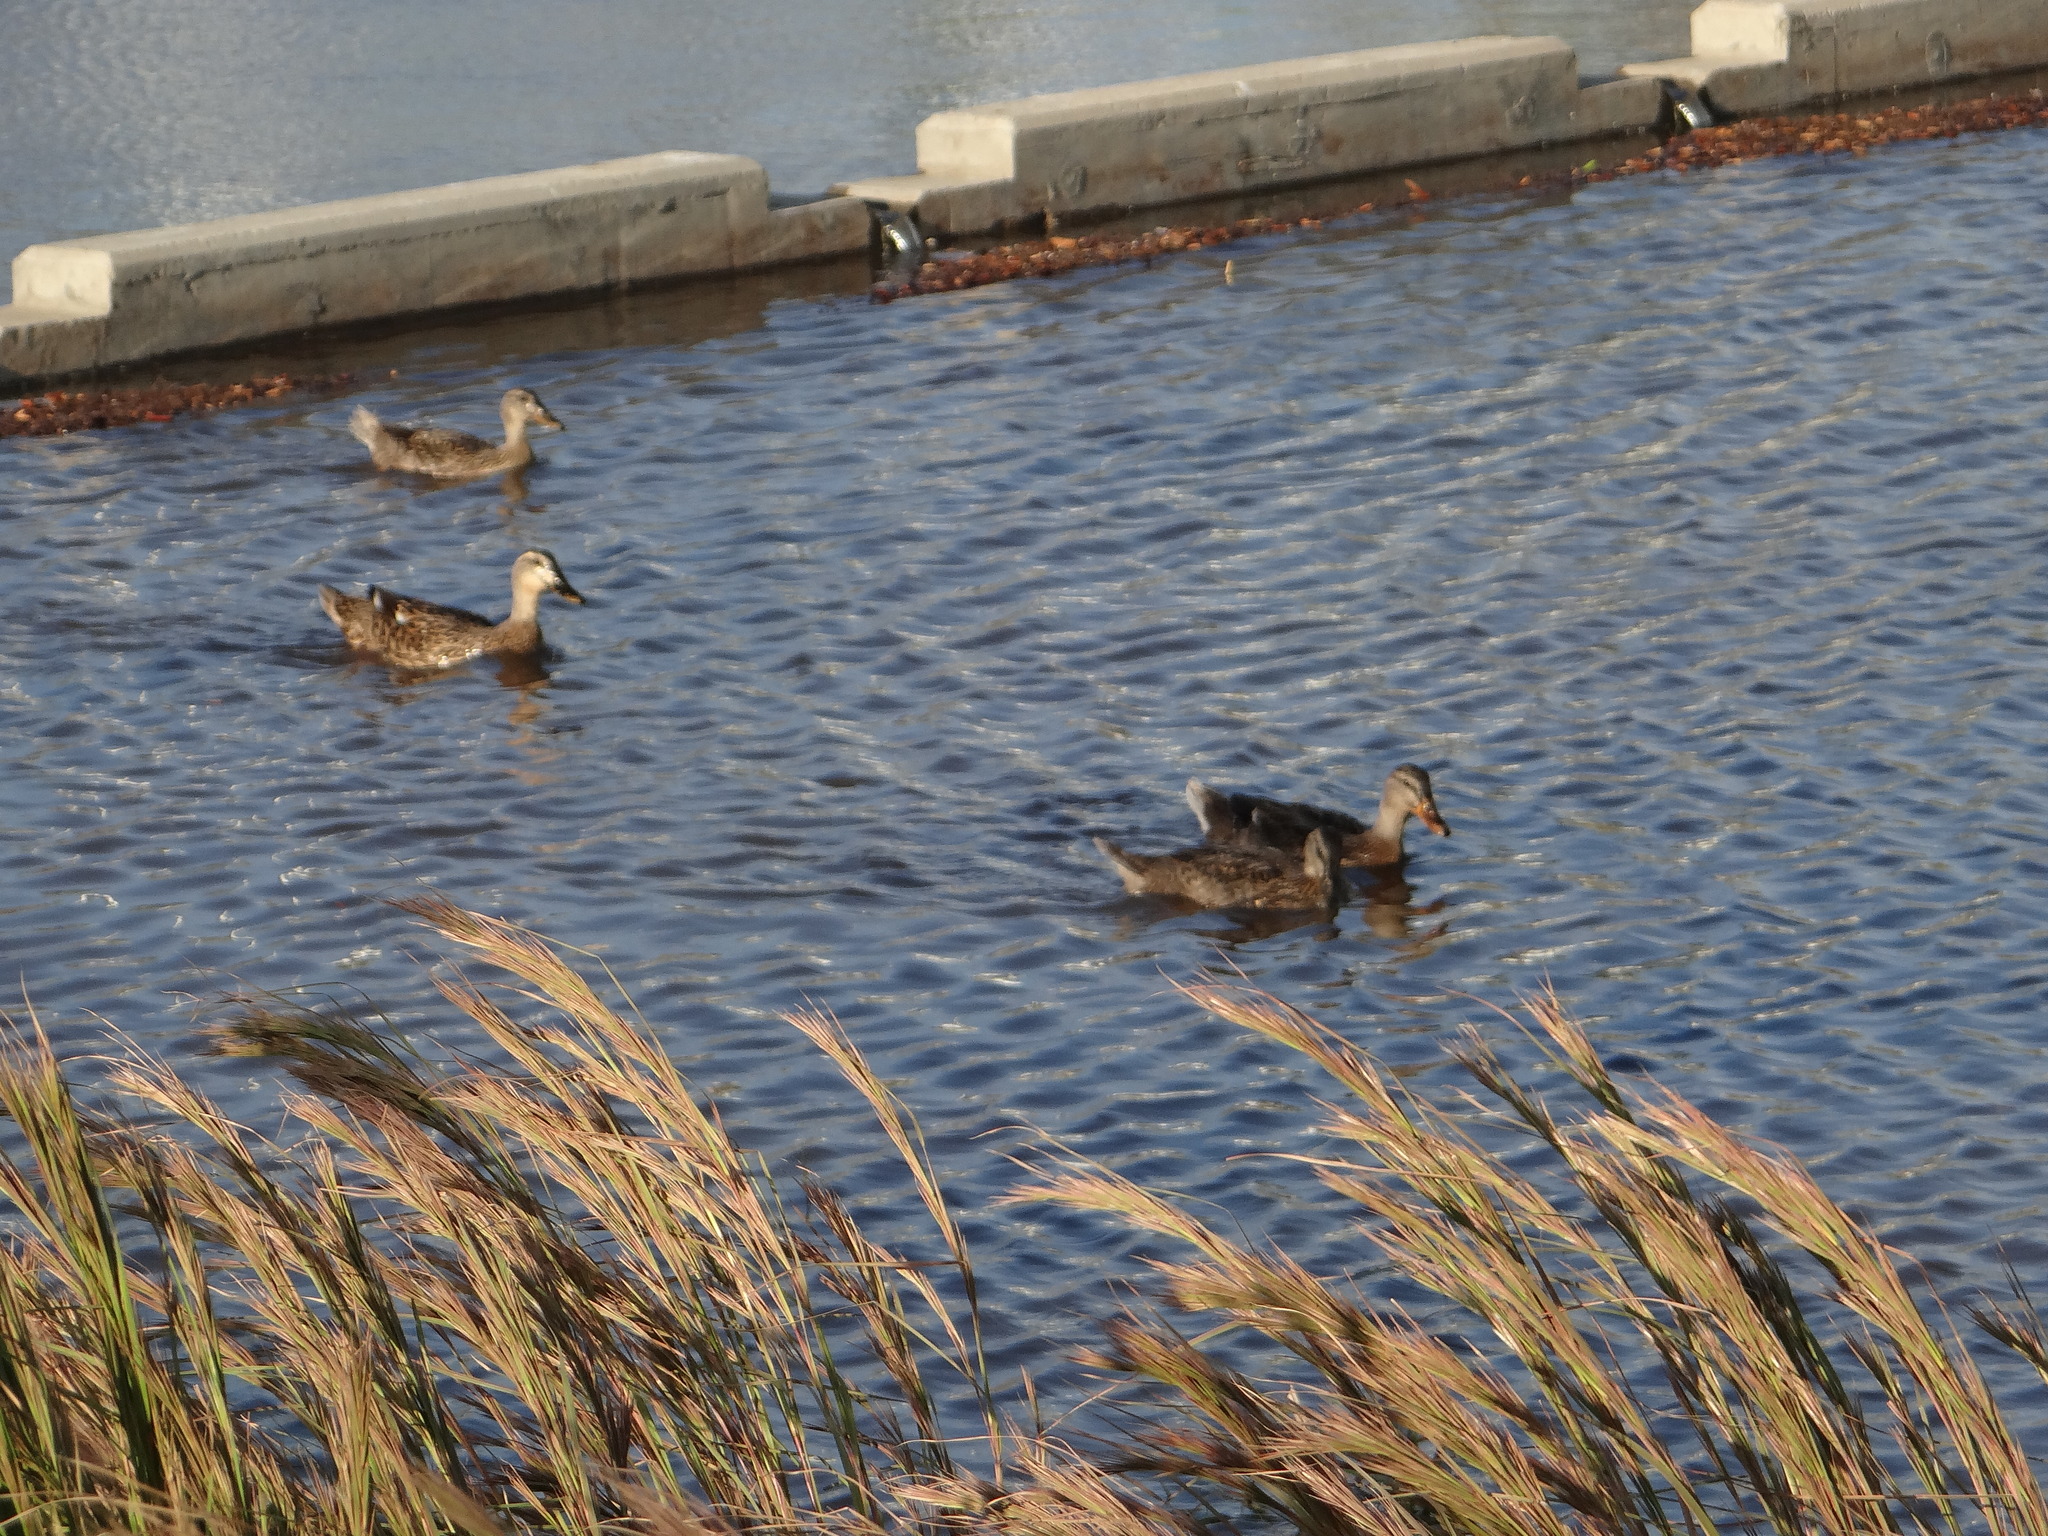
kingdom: Animalia
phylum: Chordata
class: Aves
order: Anseriformes
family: Anatidae
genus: Anas
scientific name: Anas platyrhynchos
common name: Mallard
